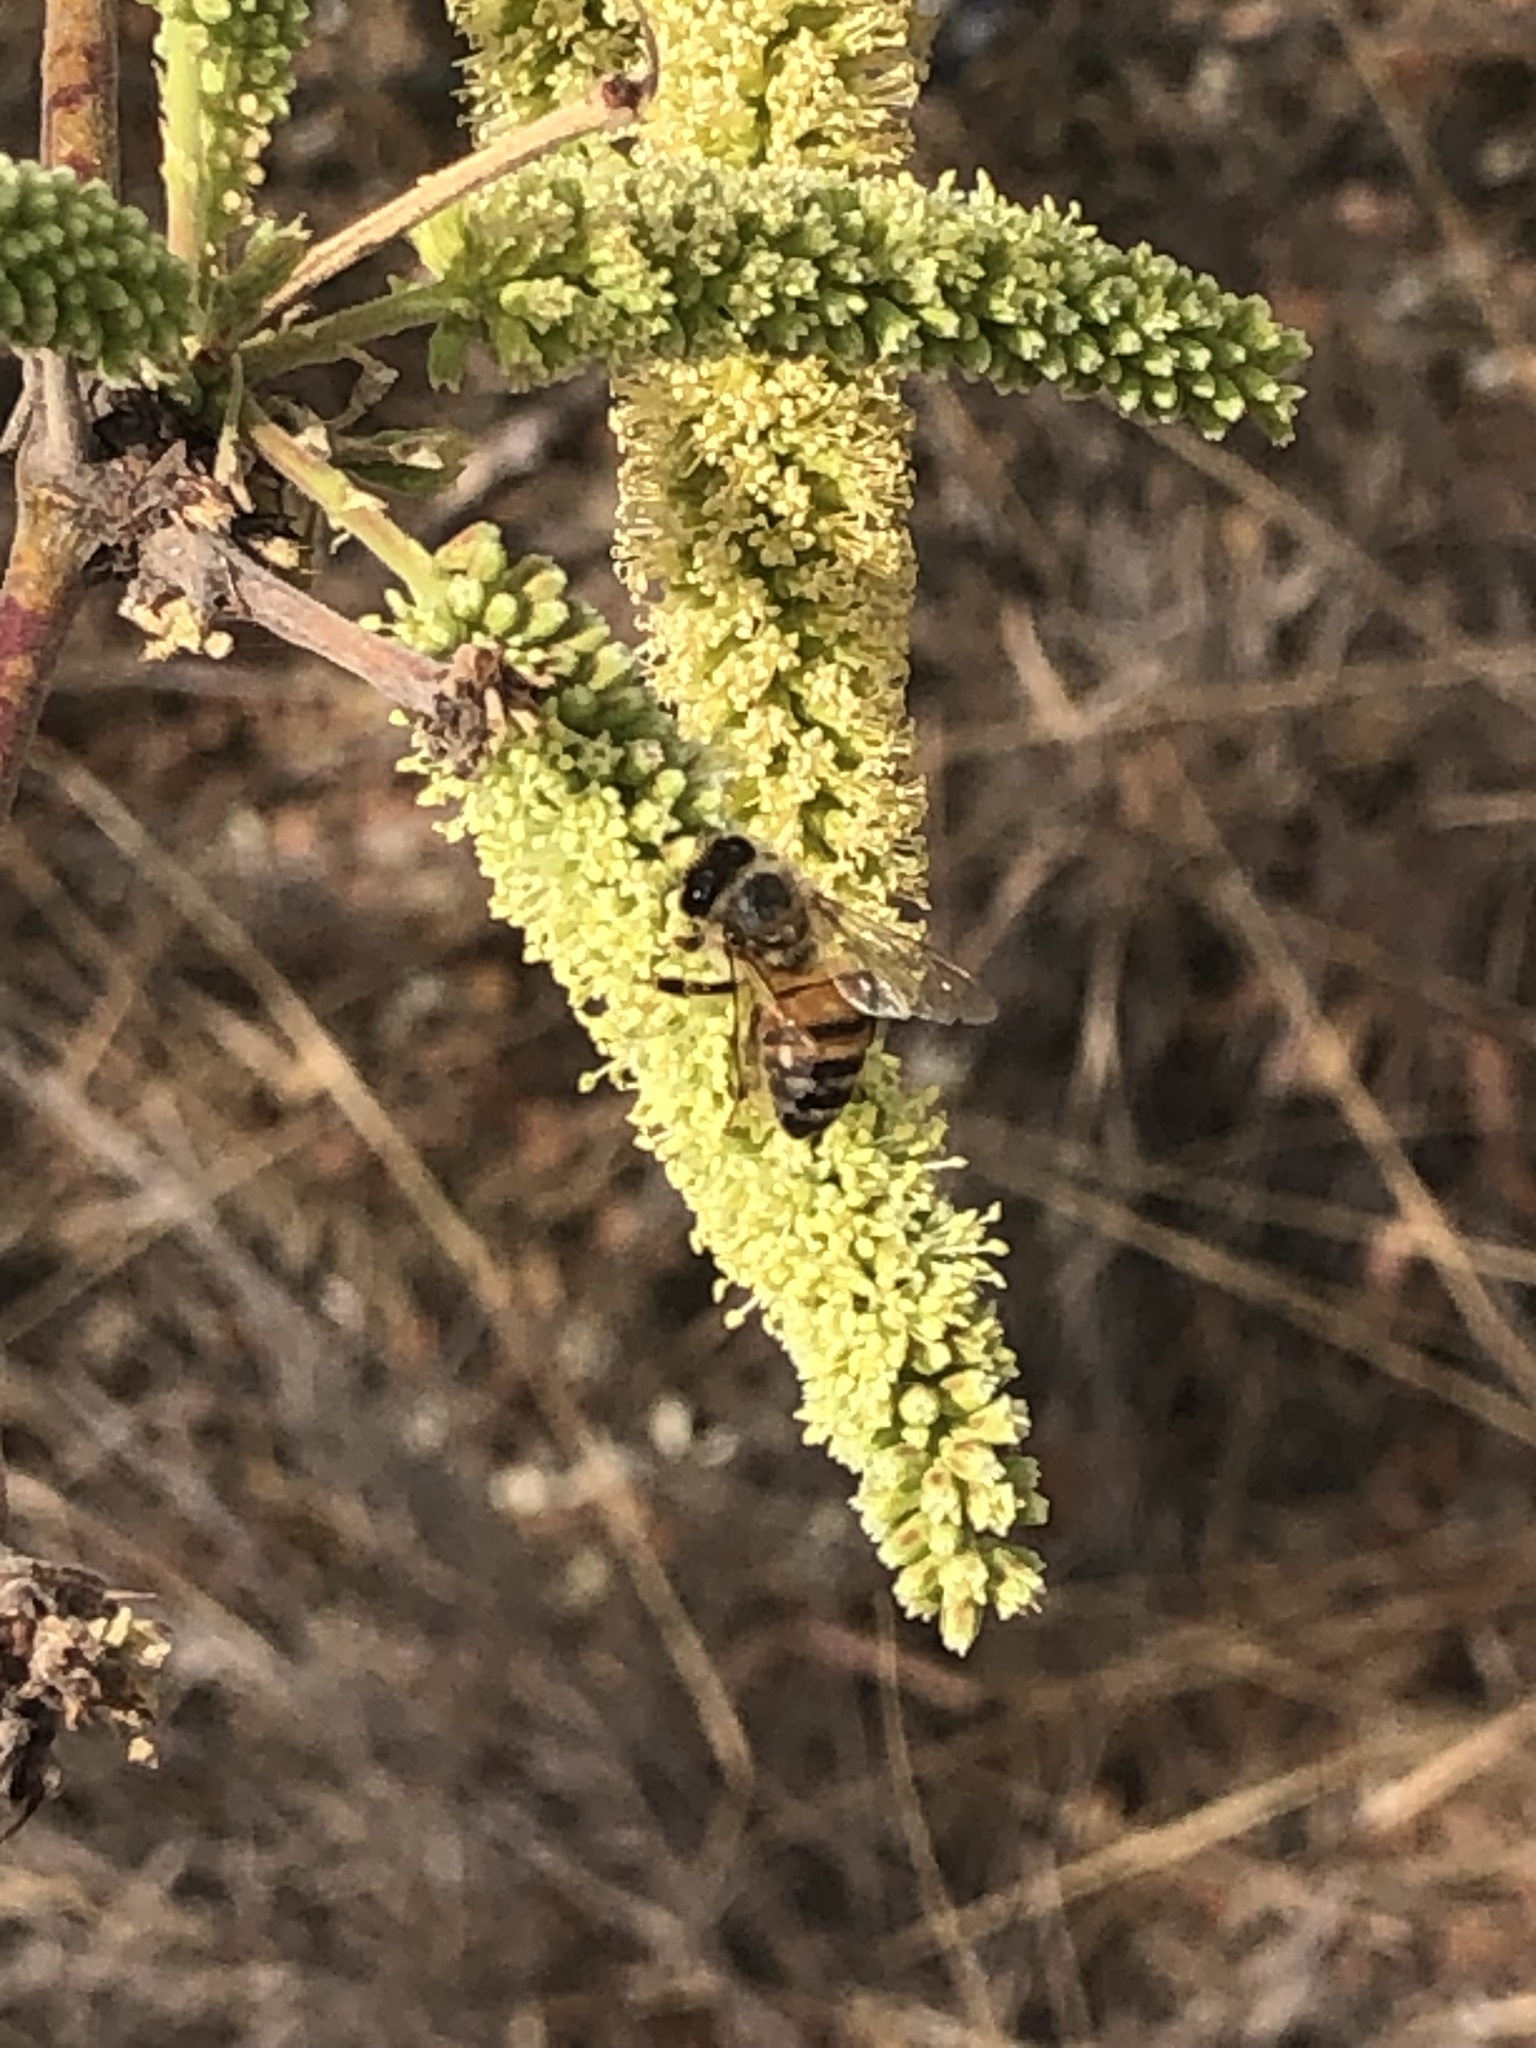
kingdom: Animalia
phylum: Arthropoda
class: Insecta
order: Hymenoptera
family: Apidae
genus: Apis
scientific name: Apis mellifera
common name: Honey bee
